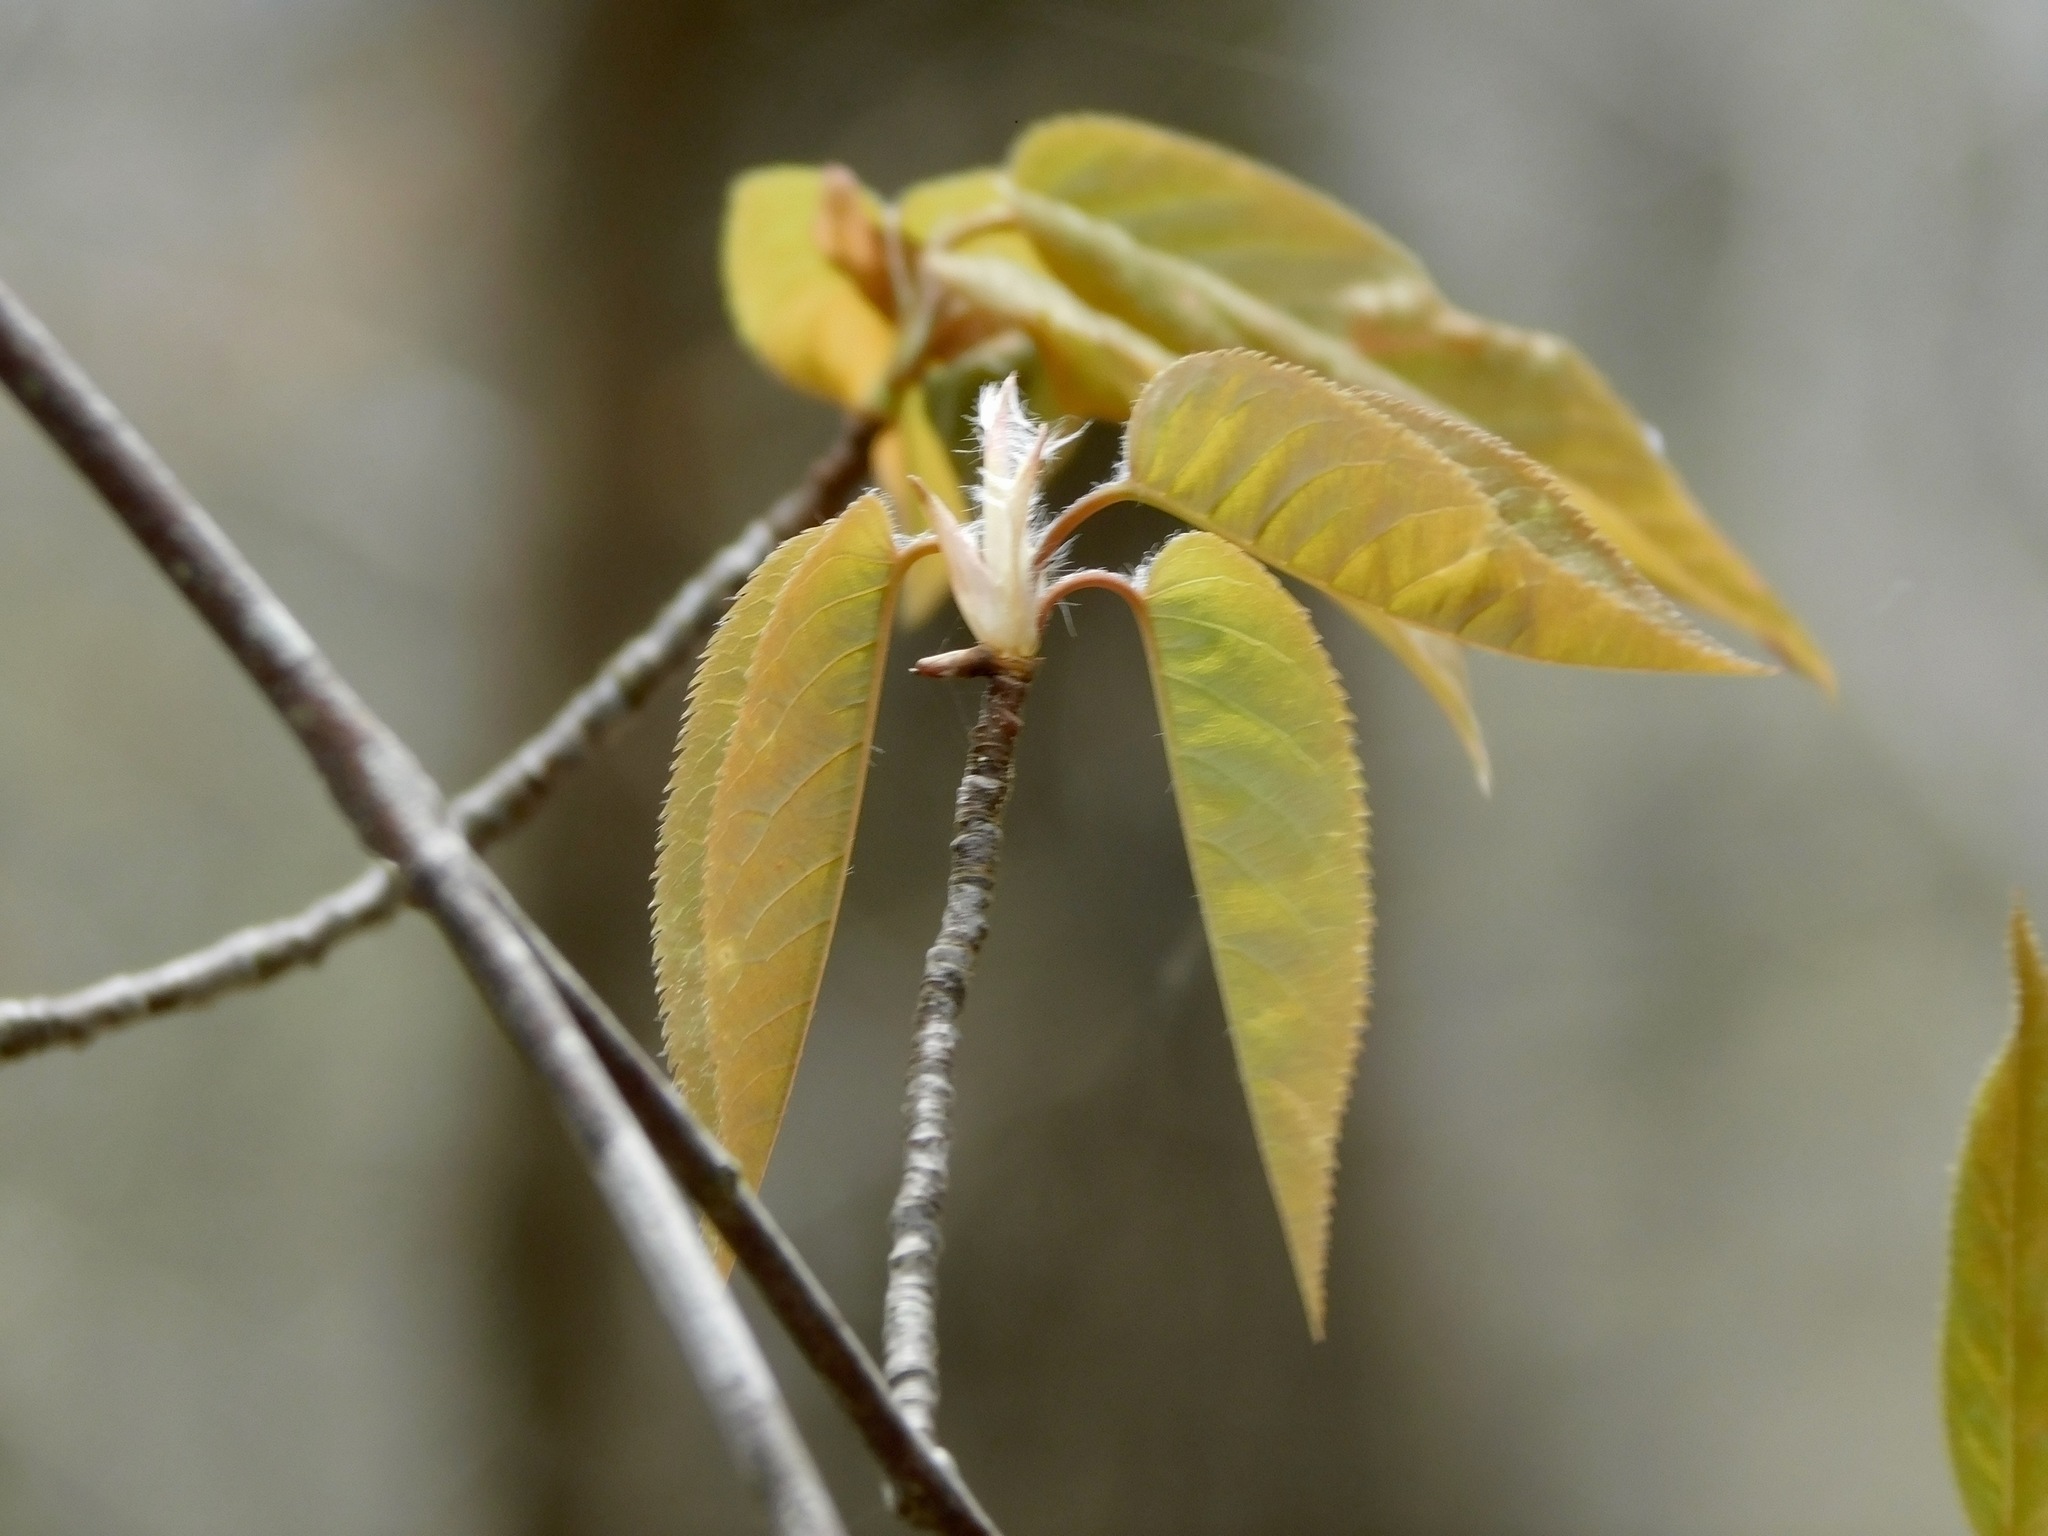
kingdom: Plantae
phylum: Tracheophyta
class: Magnoliopsida
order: Rosales
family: Rosaceae
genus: Amelanchier
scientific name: Amelanchier laevis
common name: Allegheny serviceberry
